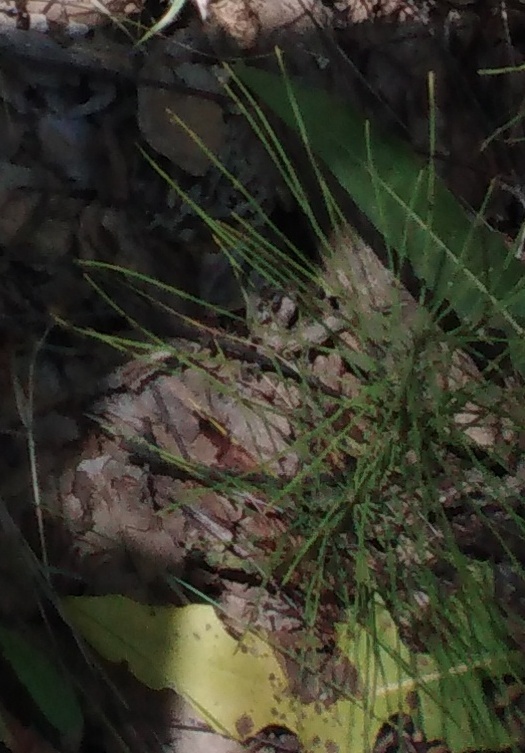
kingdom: Plantae
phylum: Tracheophyta
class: Polypodiopsida
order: Equisetales
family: Equisetaceae
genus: Equisetum
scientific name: Equisetum pratense
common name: Meadow horsetail
